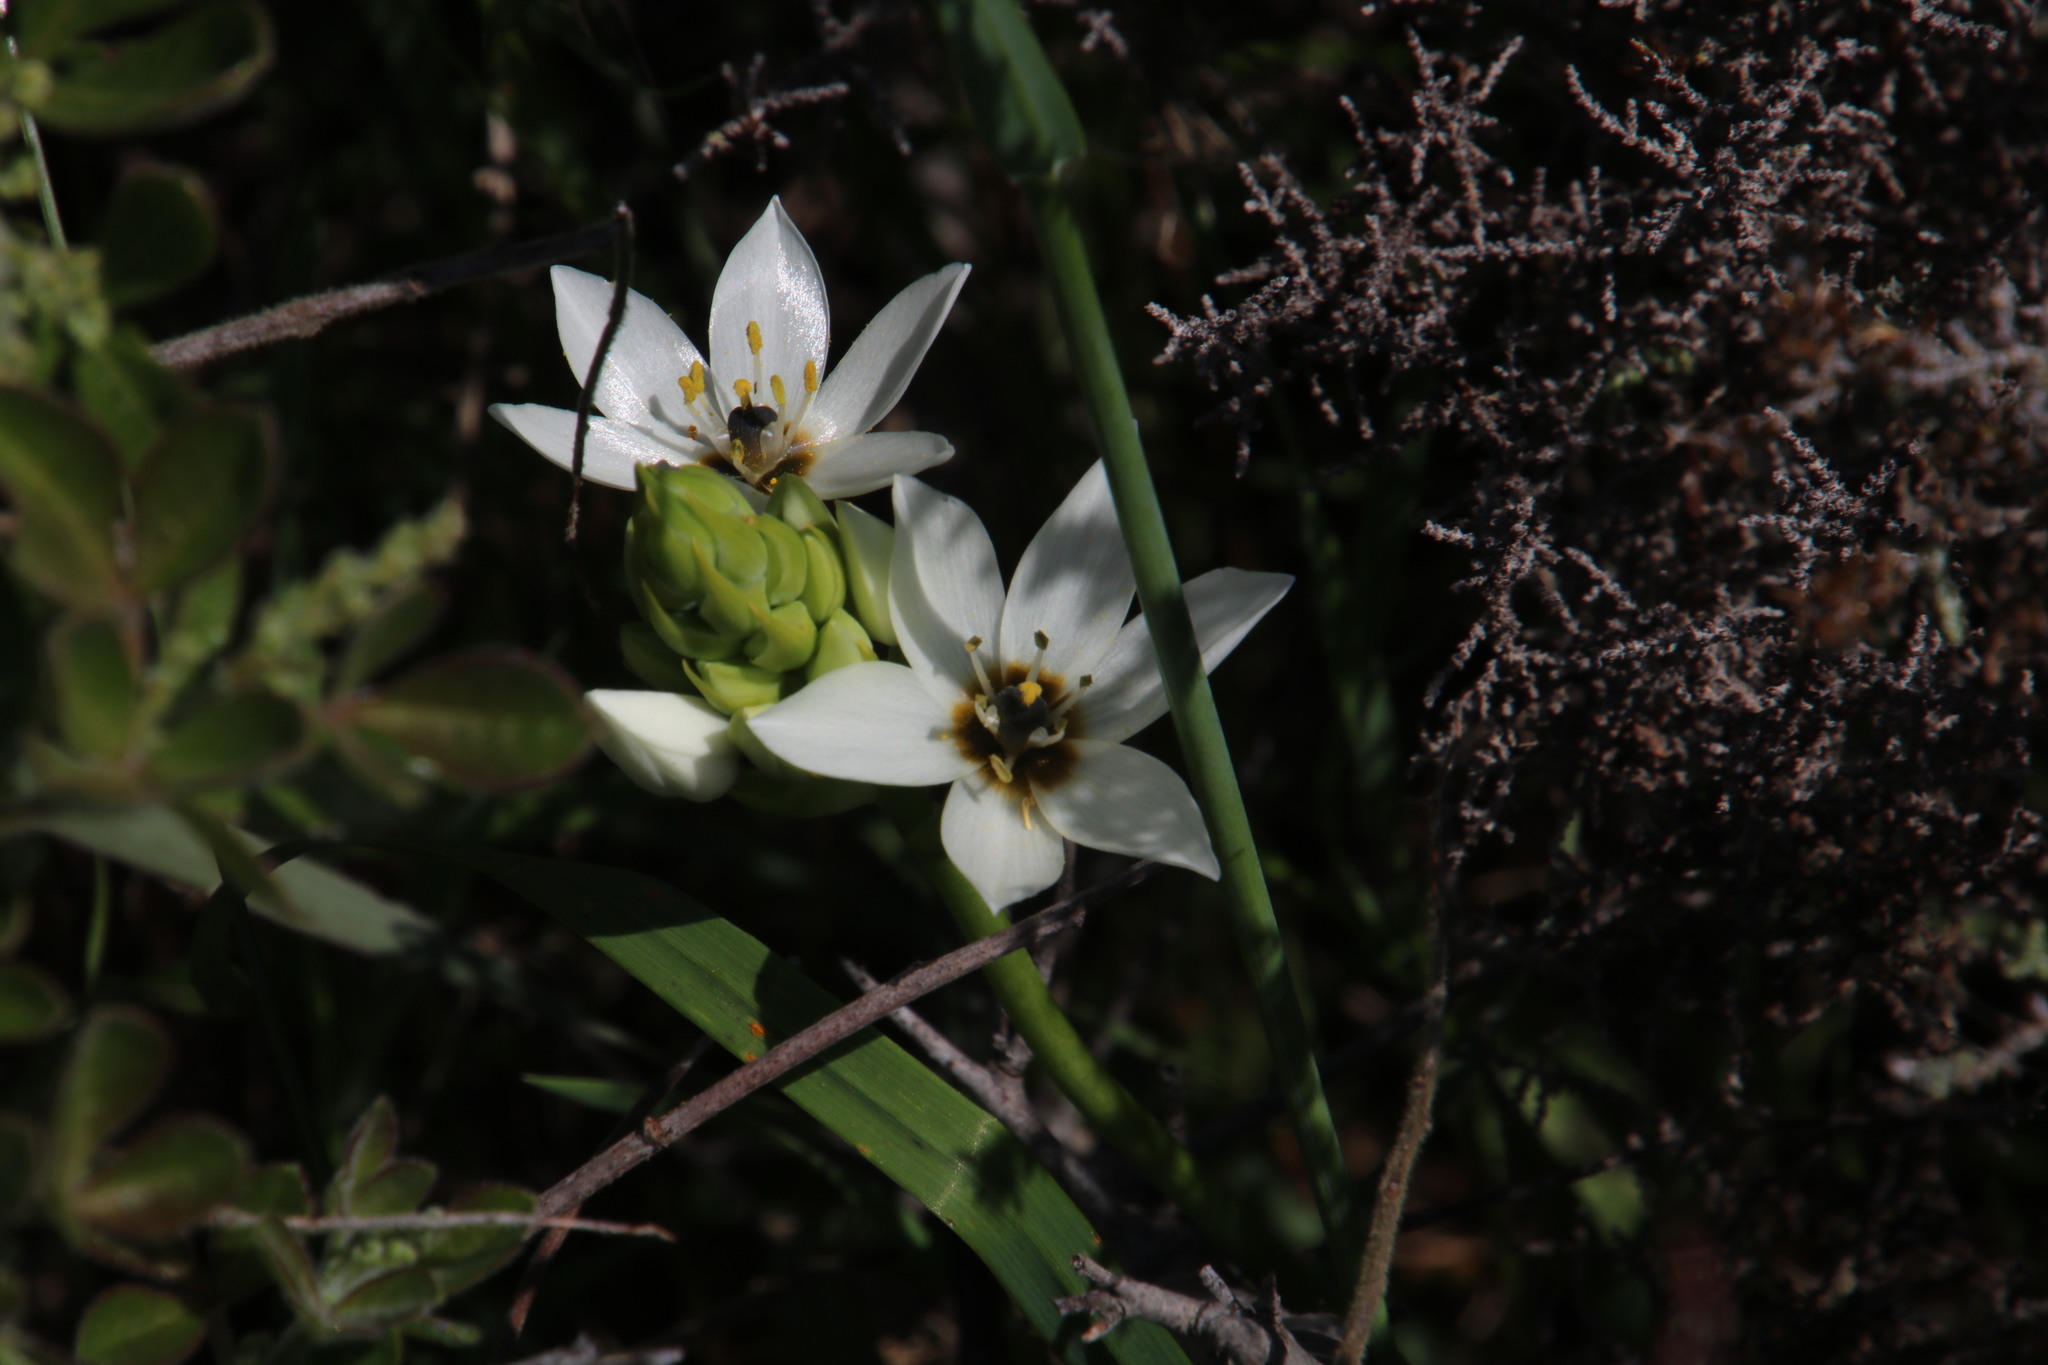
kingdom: Plantae
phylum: Tracheophyta
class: Liliopsida
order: Asparagales
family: Asparagaceae
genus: Ornithogalum
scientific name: Ornithogalum thyrsoides
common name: Chincherinchee
